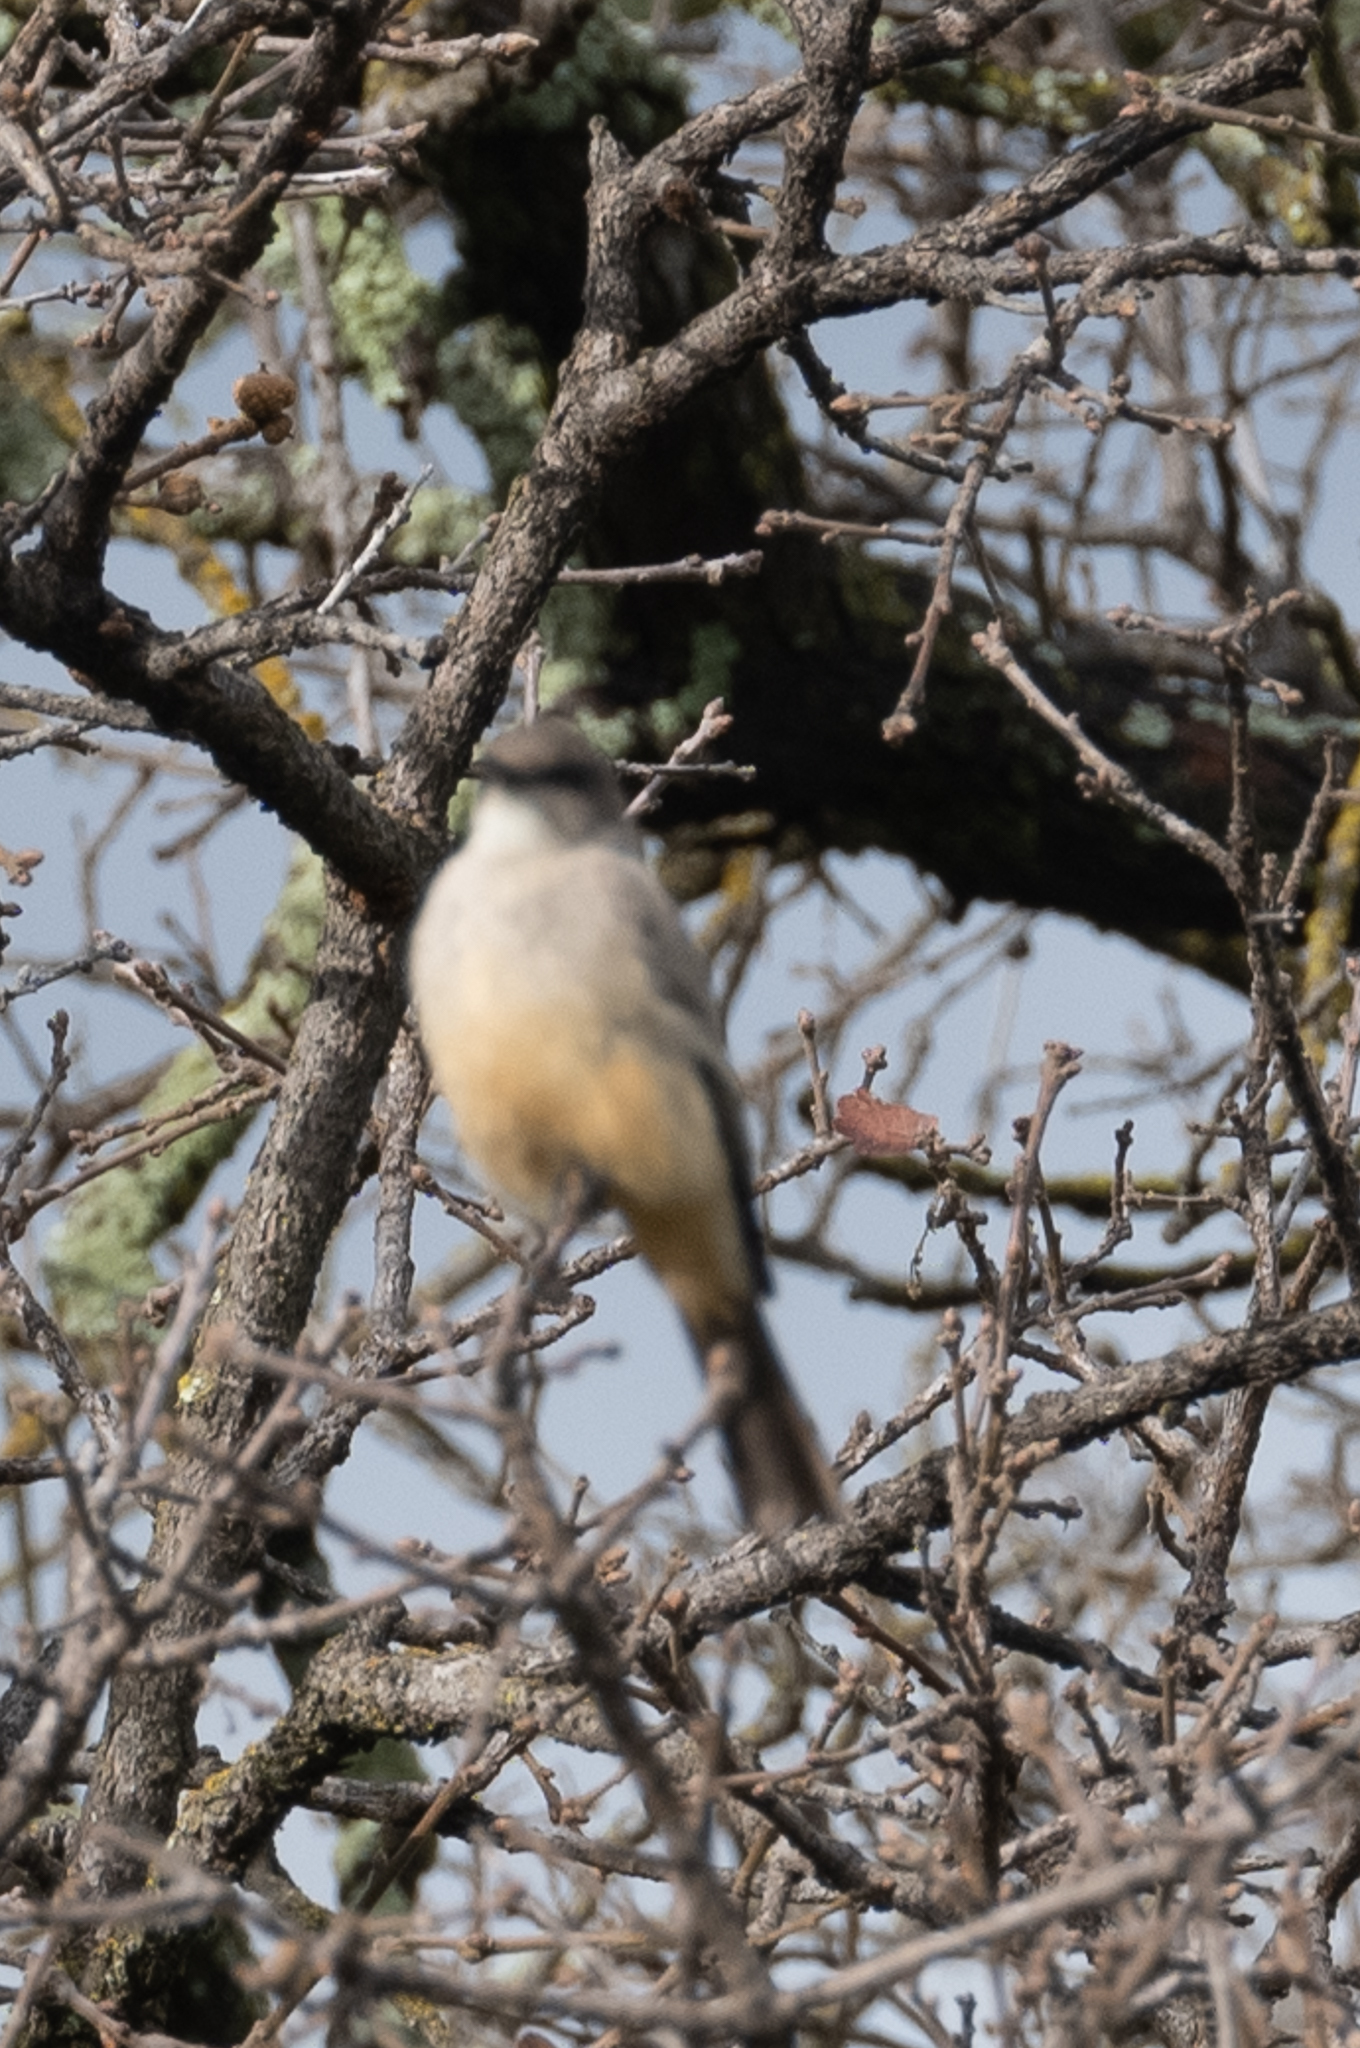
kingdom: Animalia
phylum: Chordata
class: Aves
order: Passeriformes
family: Tyrannidae
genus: Sayornis
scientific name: Sayornis saya
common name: Say's phoebe
